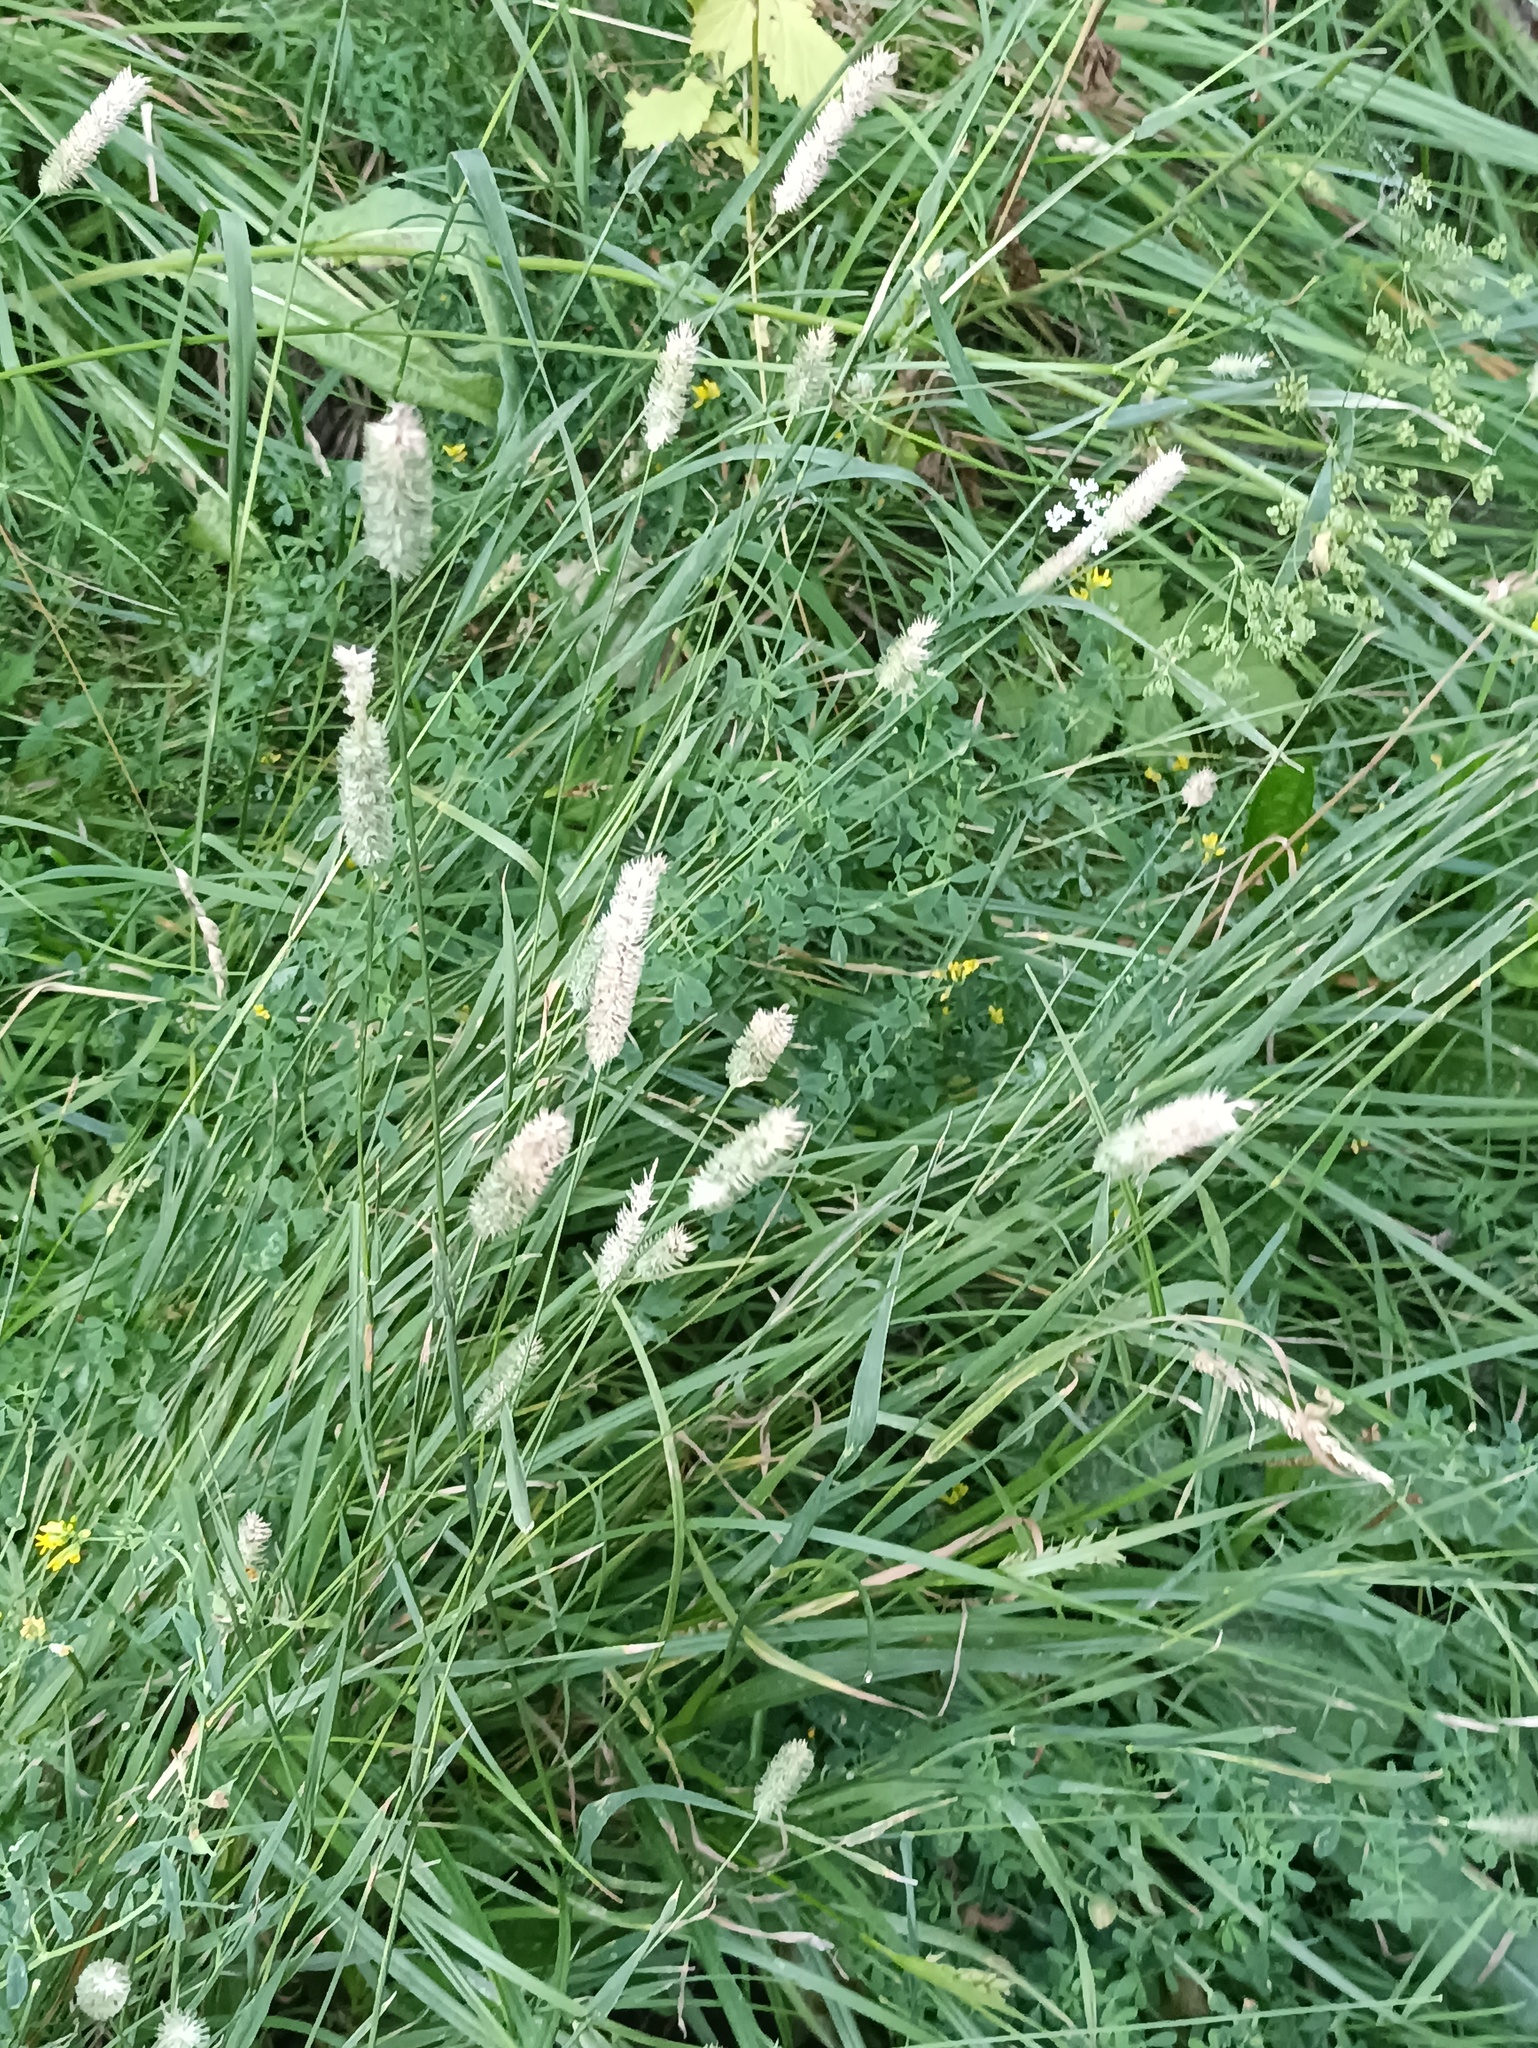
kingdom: Plantae
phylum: Tracheophyta
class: Liliopsida
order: Poales
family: Poaceae
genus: Phleum
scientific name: Phleum pratense
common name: Timothy grass
